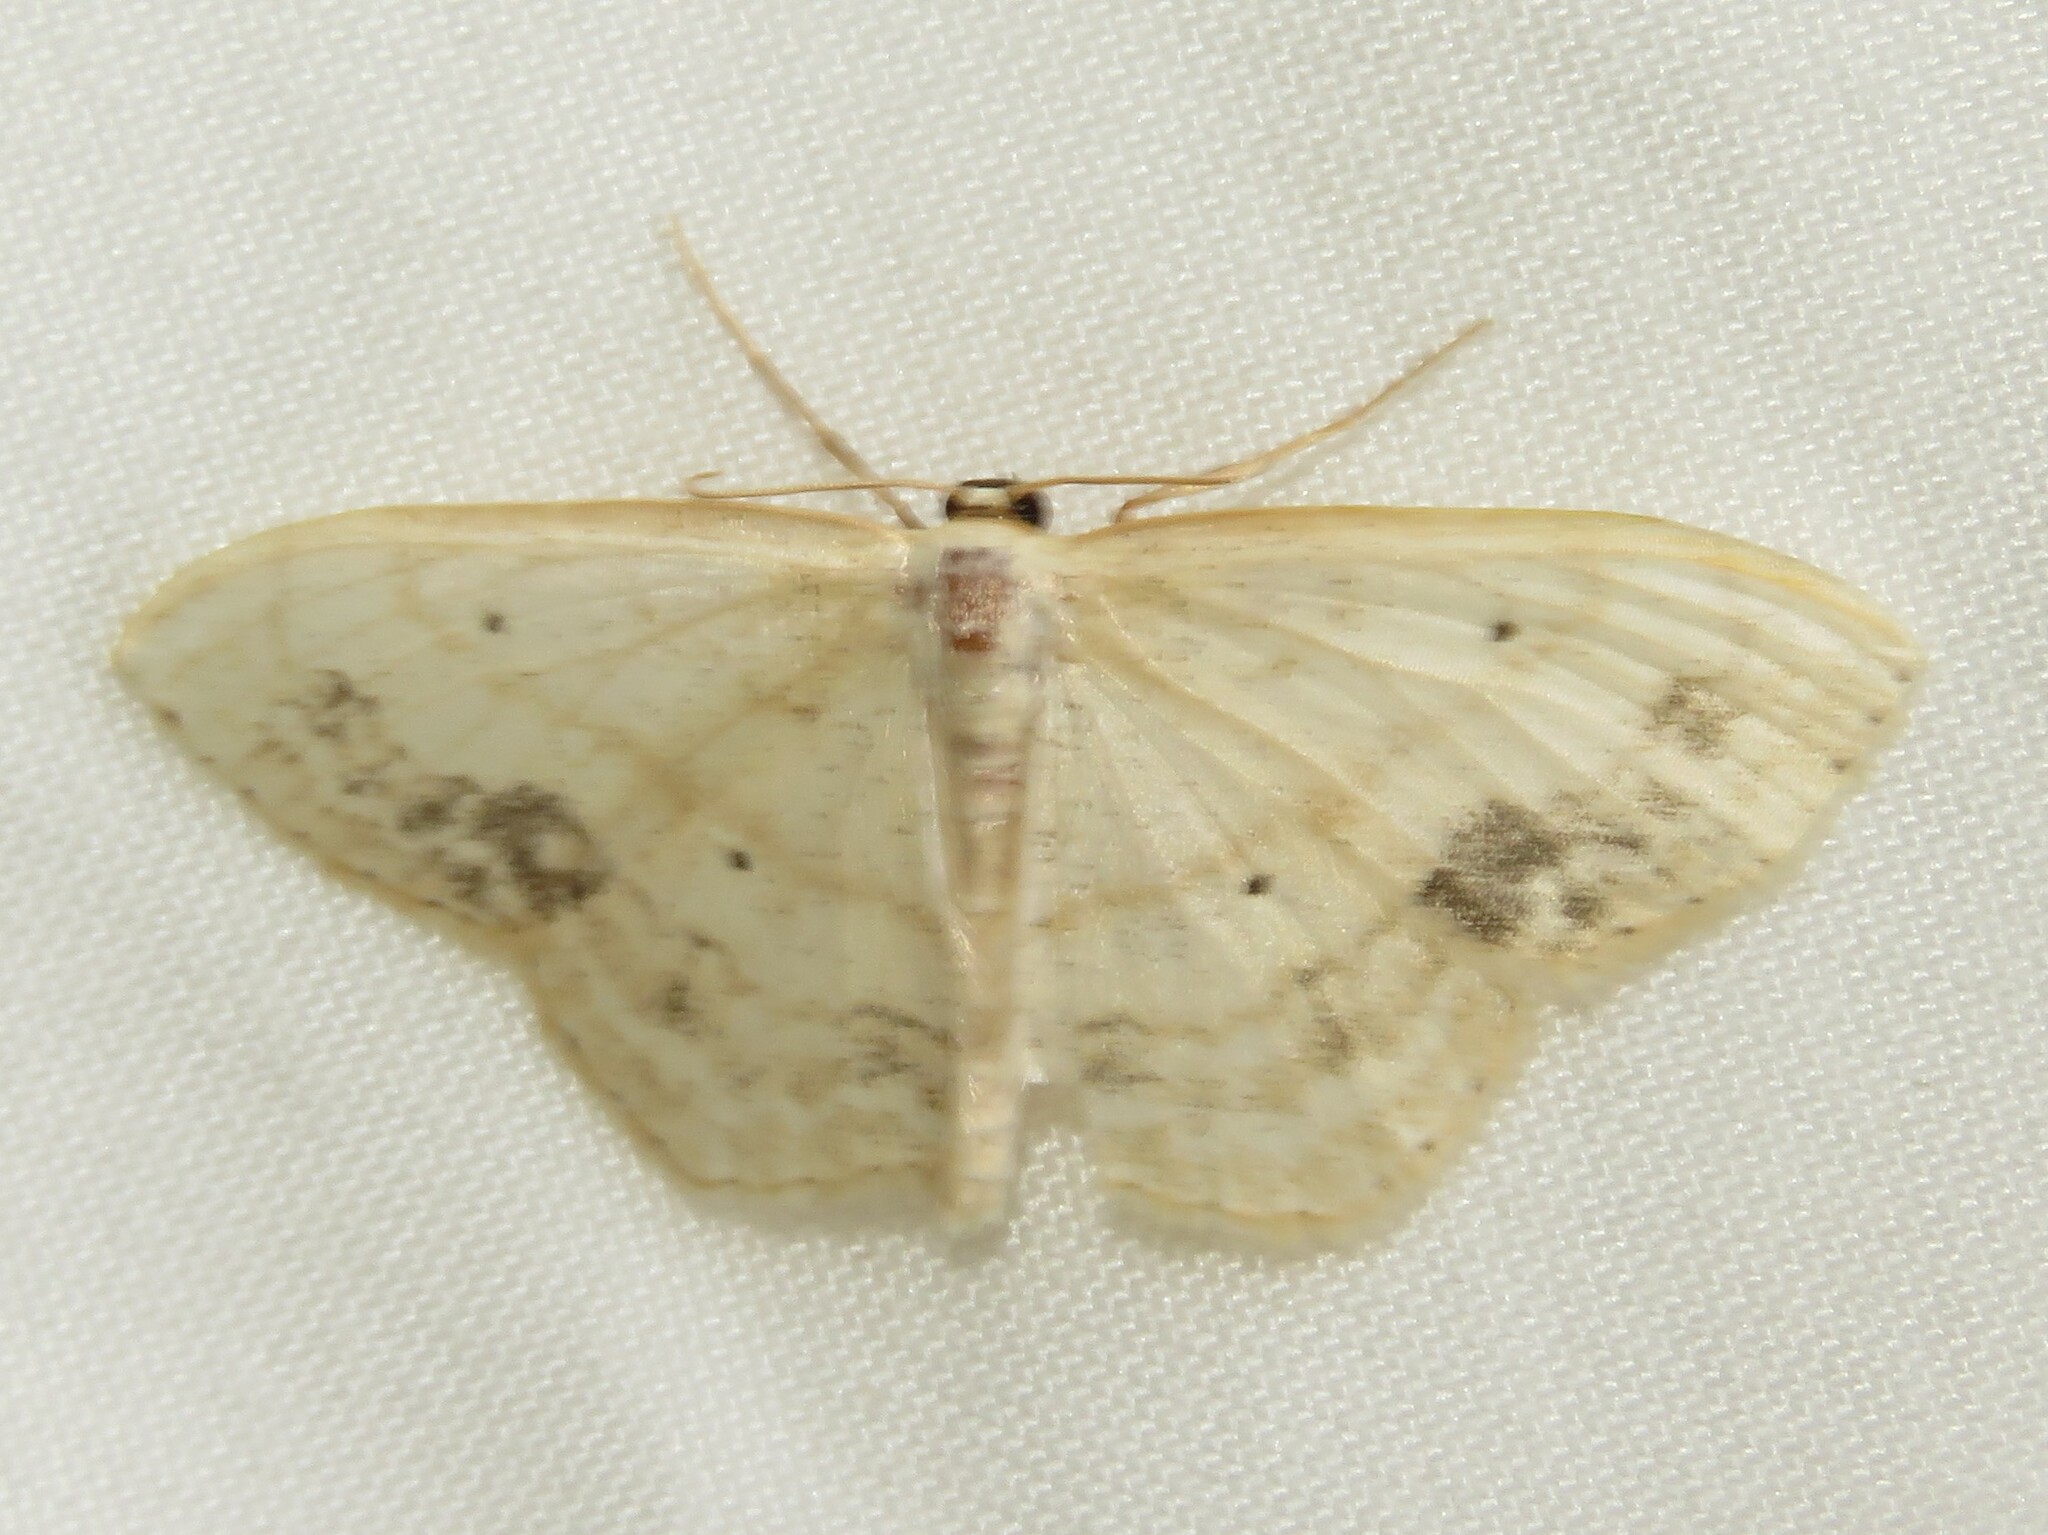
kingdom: Animalia
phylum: Arthropoda
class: Insecta
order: Lepidoptera
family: Geometridae
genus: Scopula
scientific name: Scopula limboundata
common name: Large lace border
